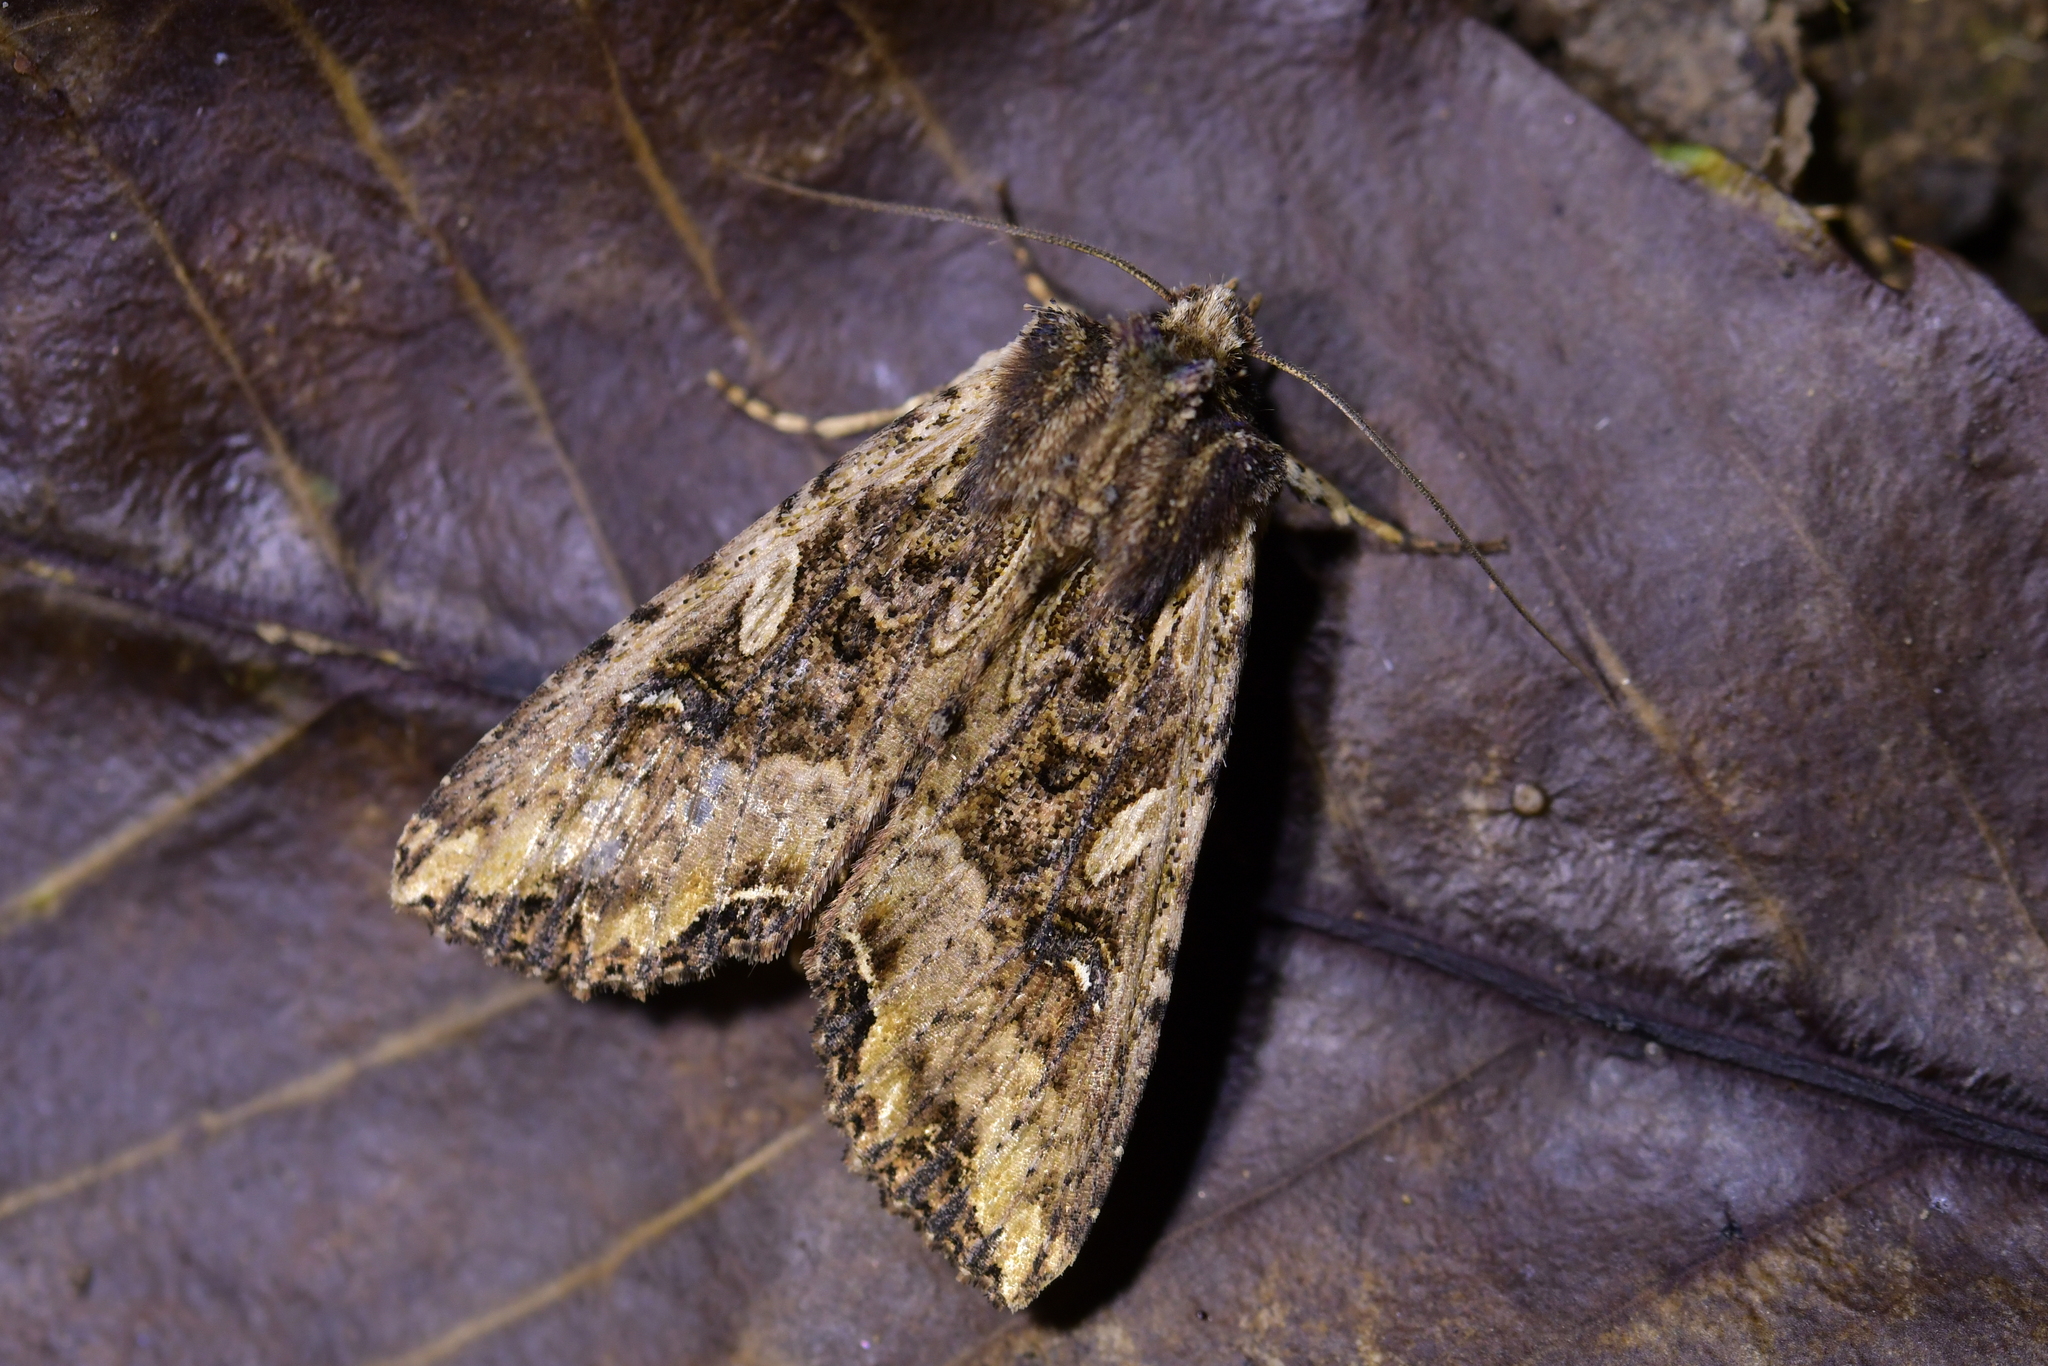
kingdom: Animalia
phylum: Arthropoda
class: Insecta
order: Lepidoptera
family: Noctuidae
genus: Meterana
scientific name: Meterana stipata
